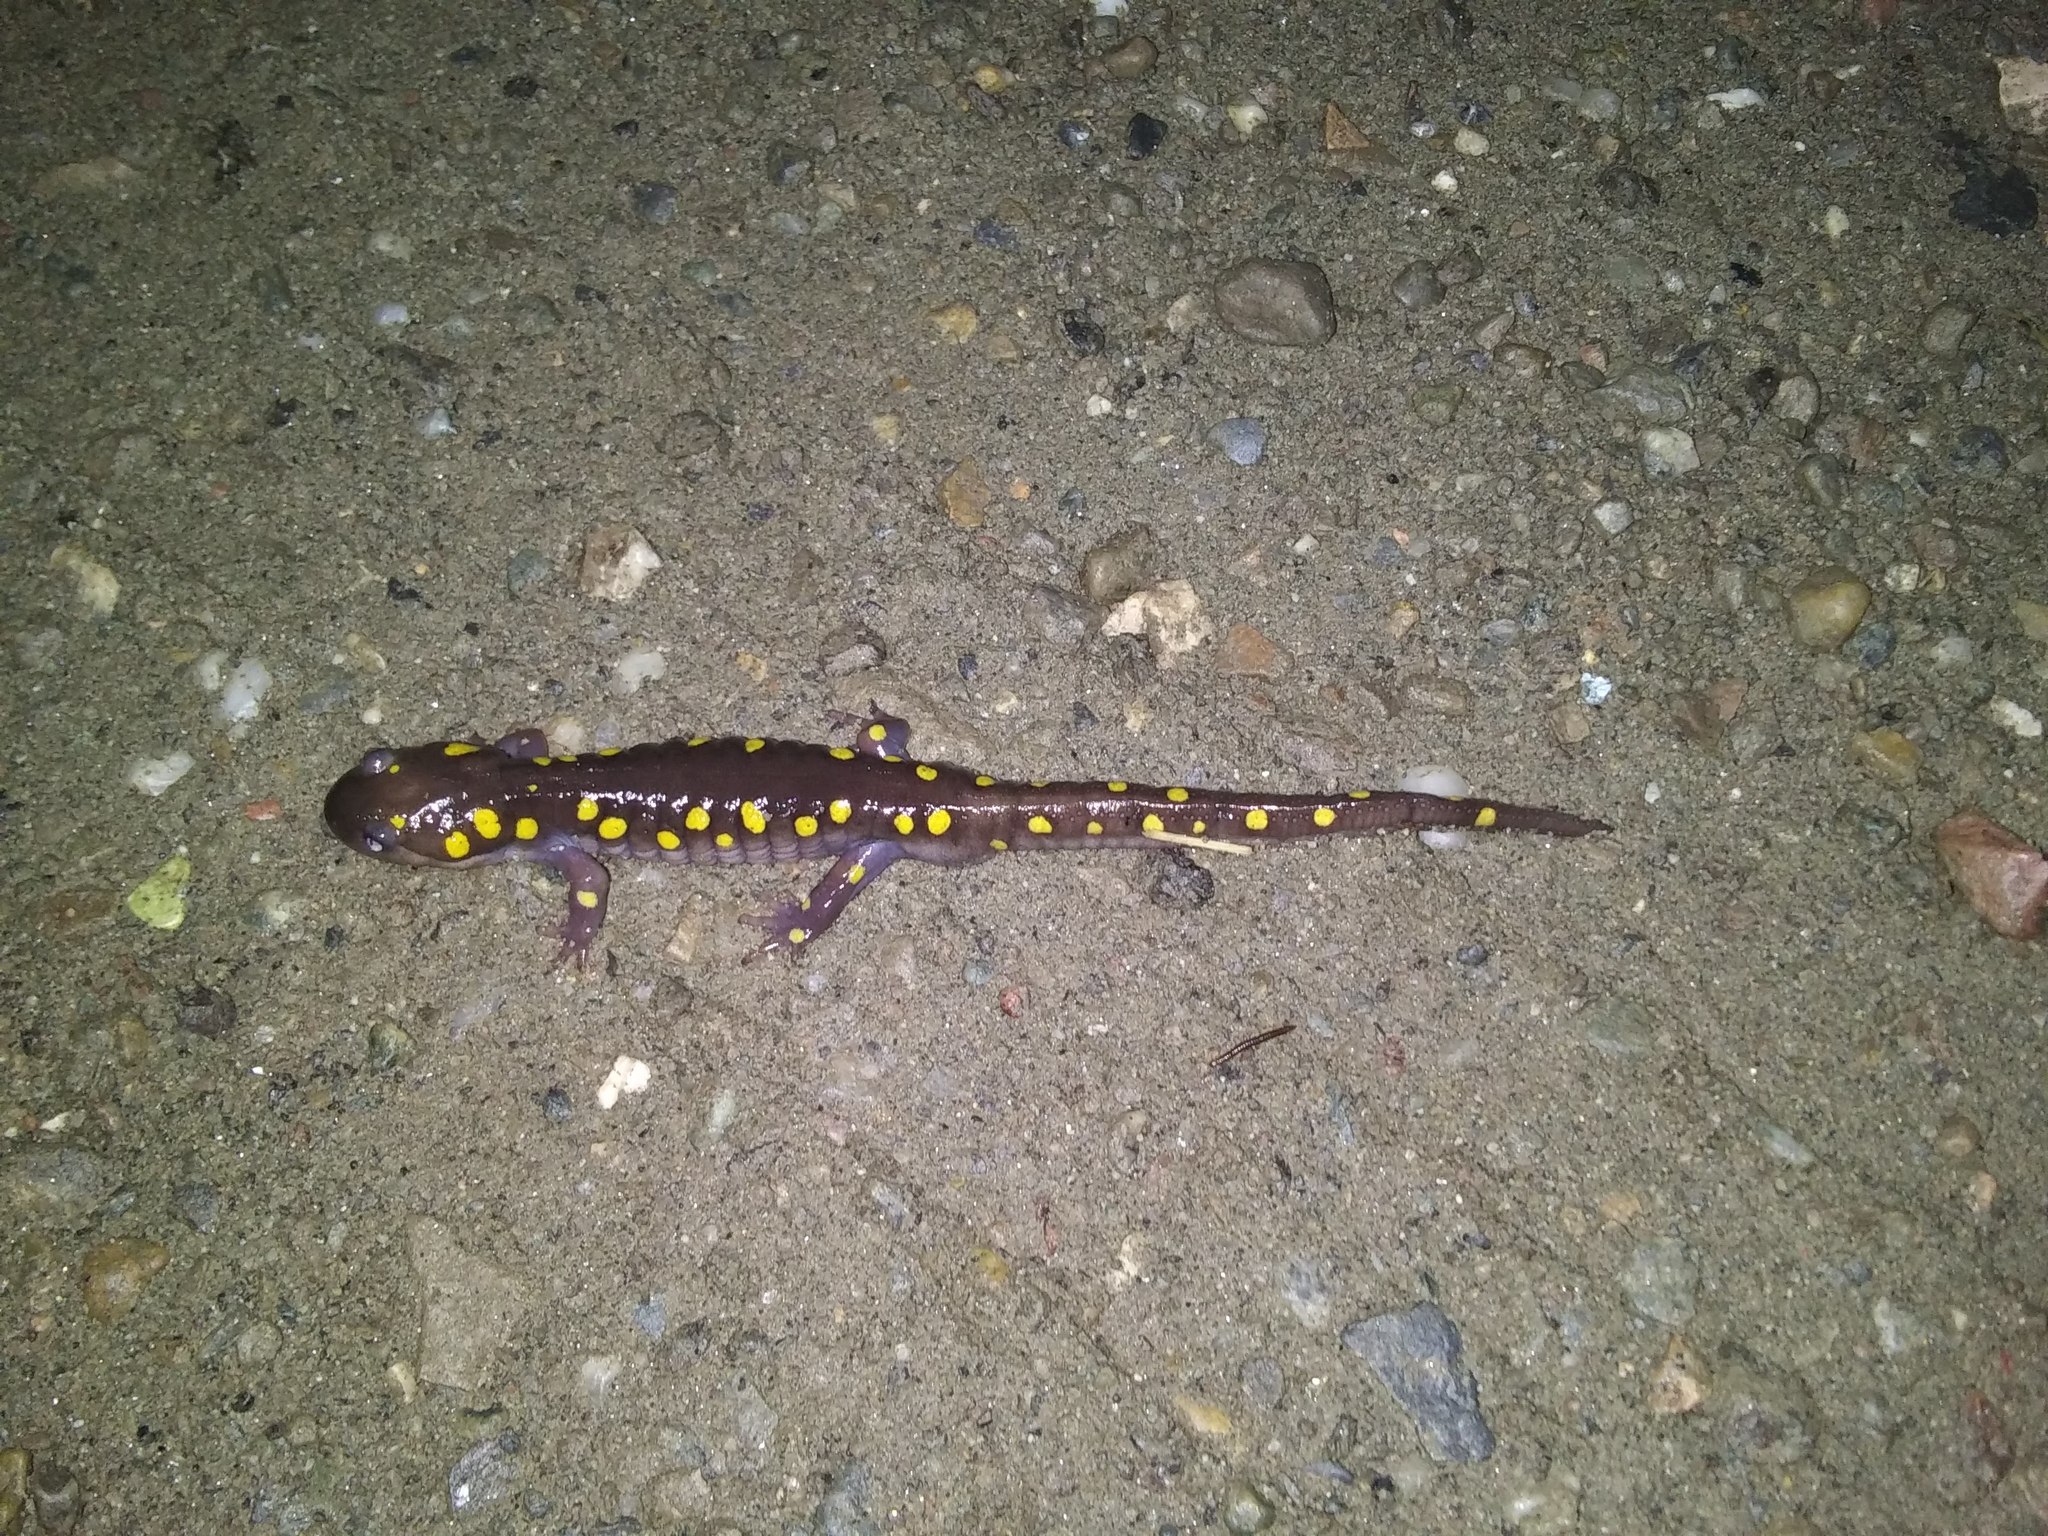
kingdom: Animalia
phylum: Chordata
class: Amphibia
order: Caudata
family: Ambystomatidae
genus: Ambystoma
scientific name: Ambystoma maculatum
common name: Spotted salamander
